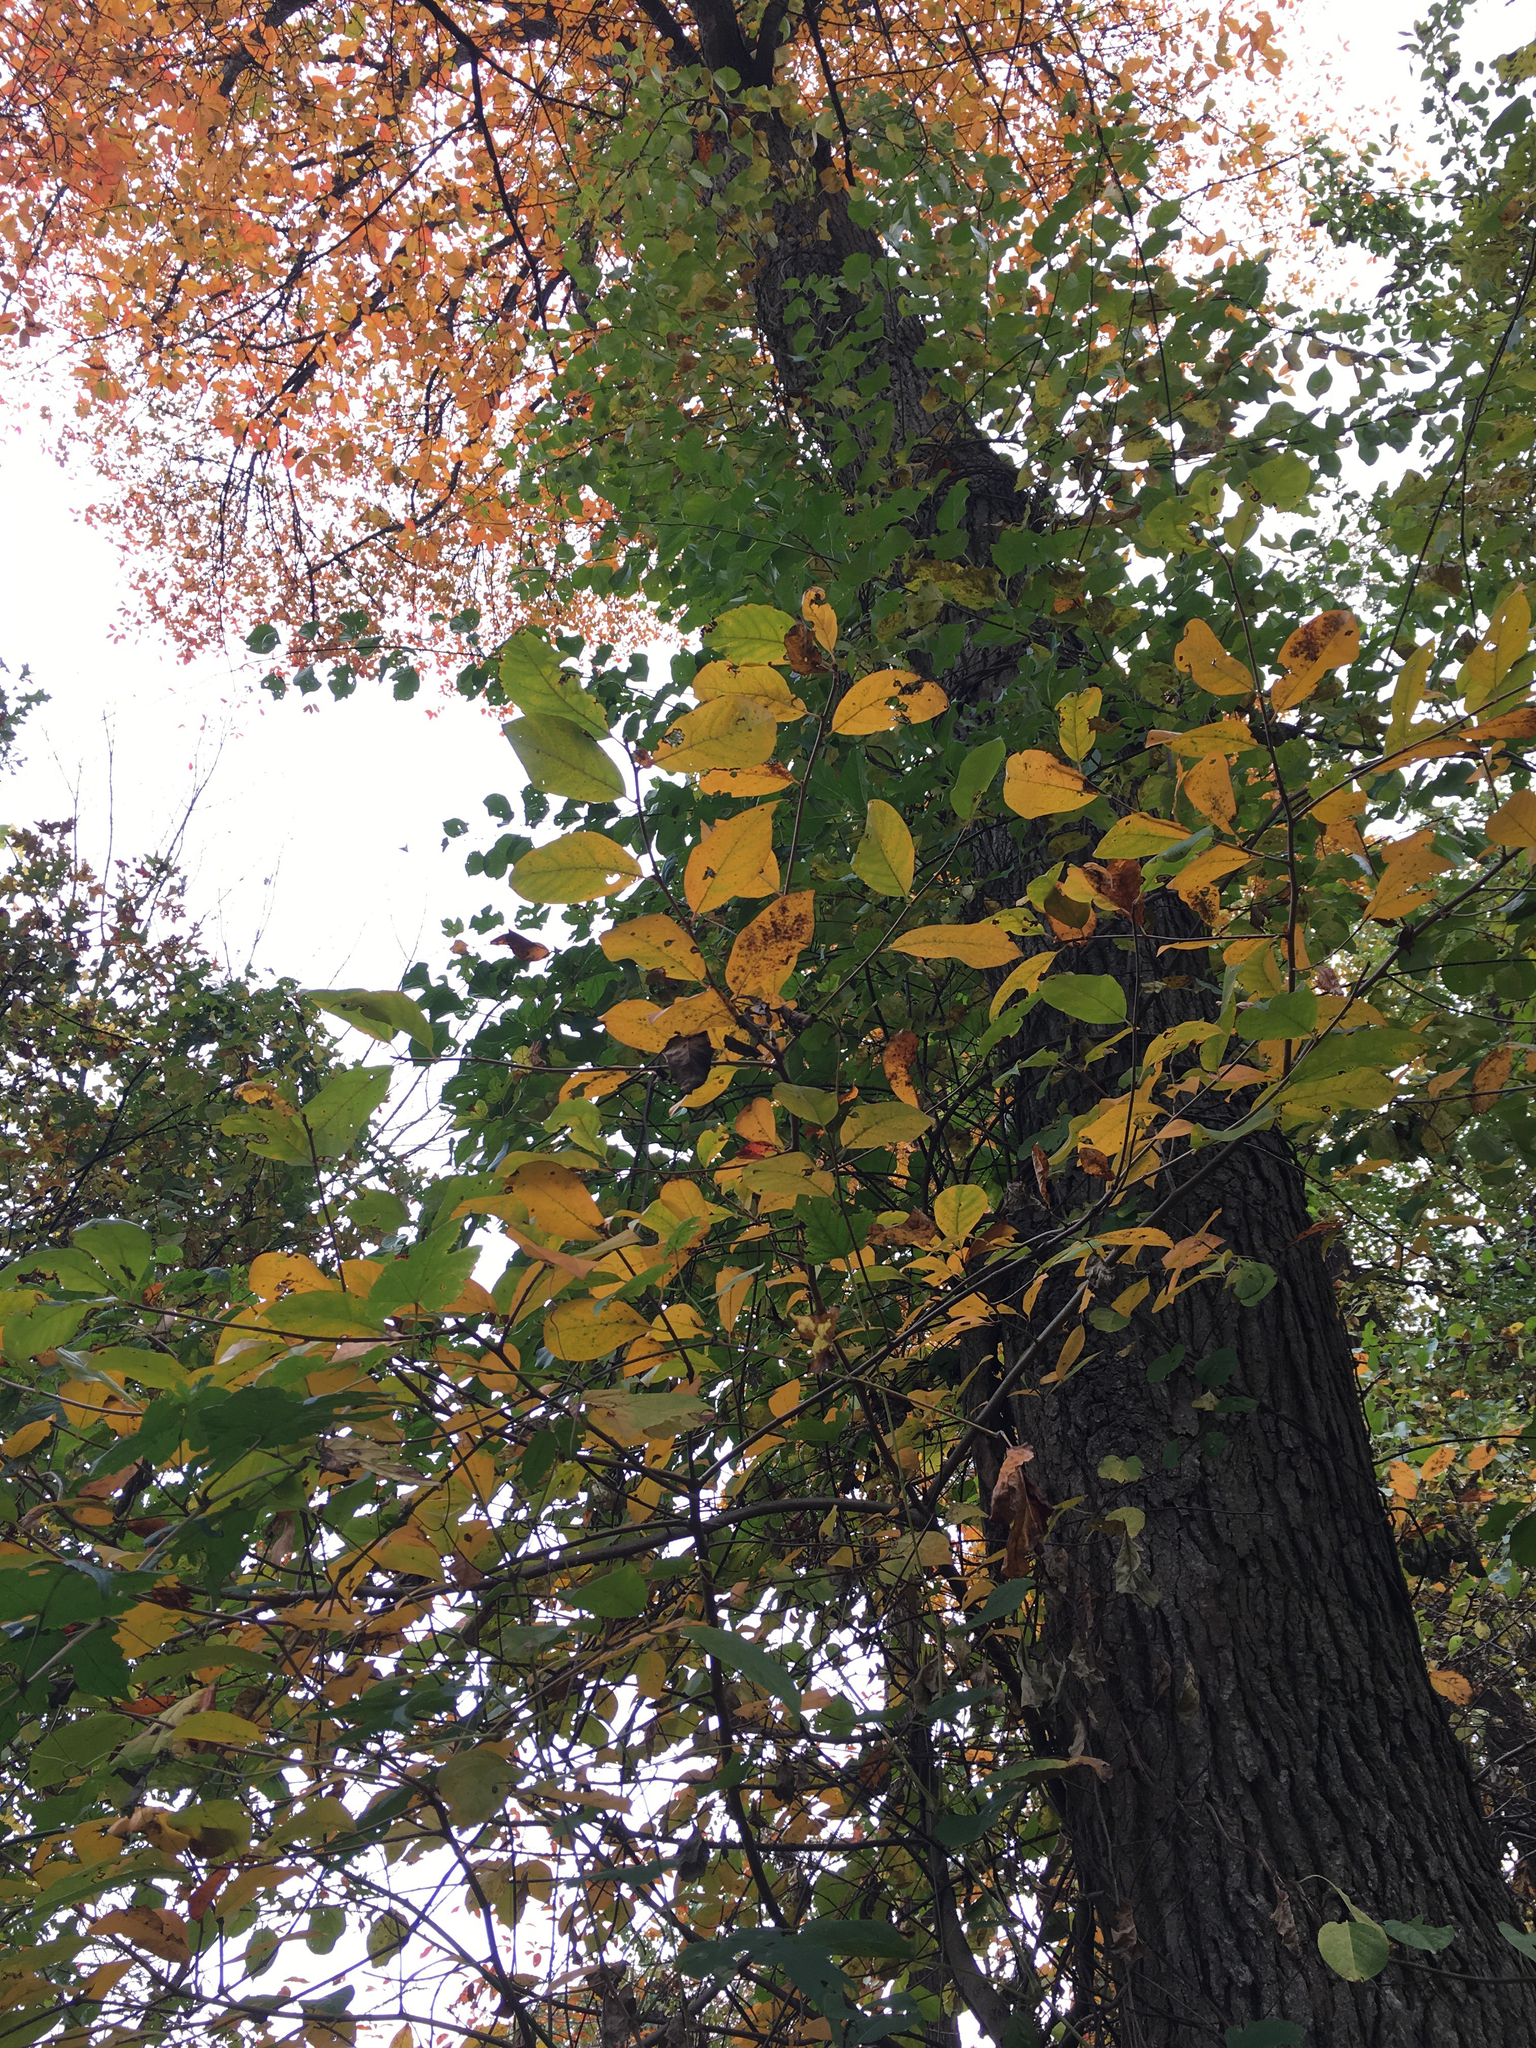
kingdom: Plantae
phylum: Tracheophyta
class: Magnoliopsida
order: Cornales
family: Nyssaceae
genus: Nyssa
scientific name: Nyssa sylvatica
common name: Black tupelo
